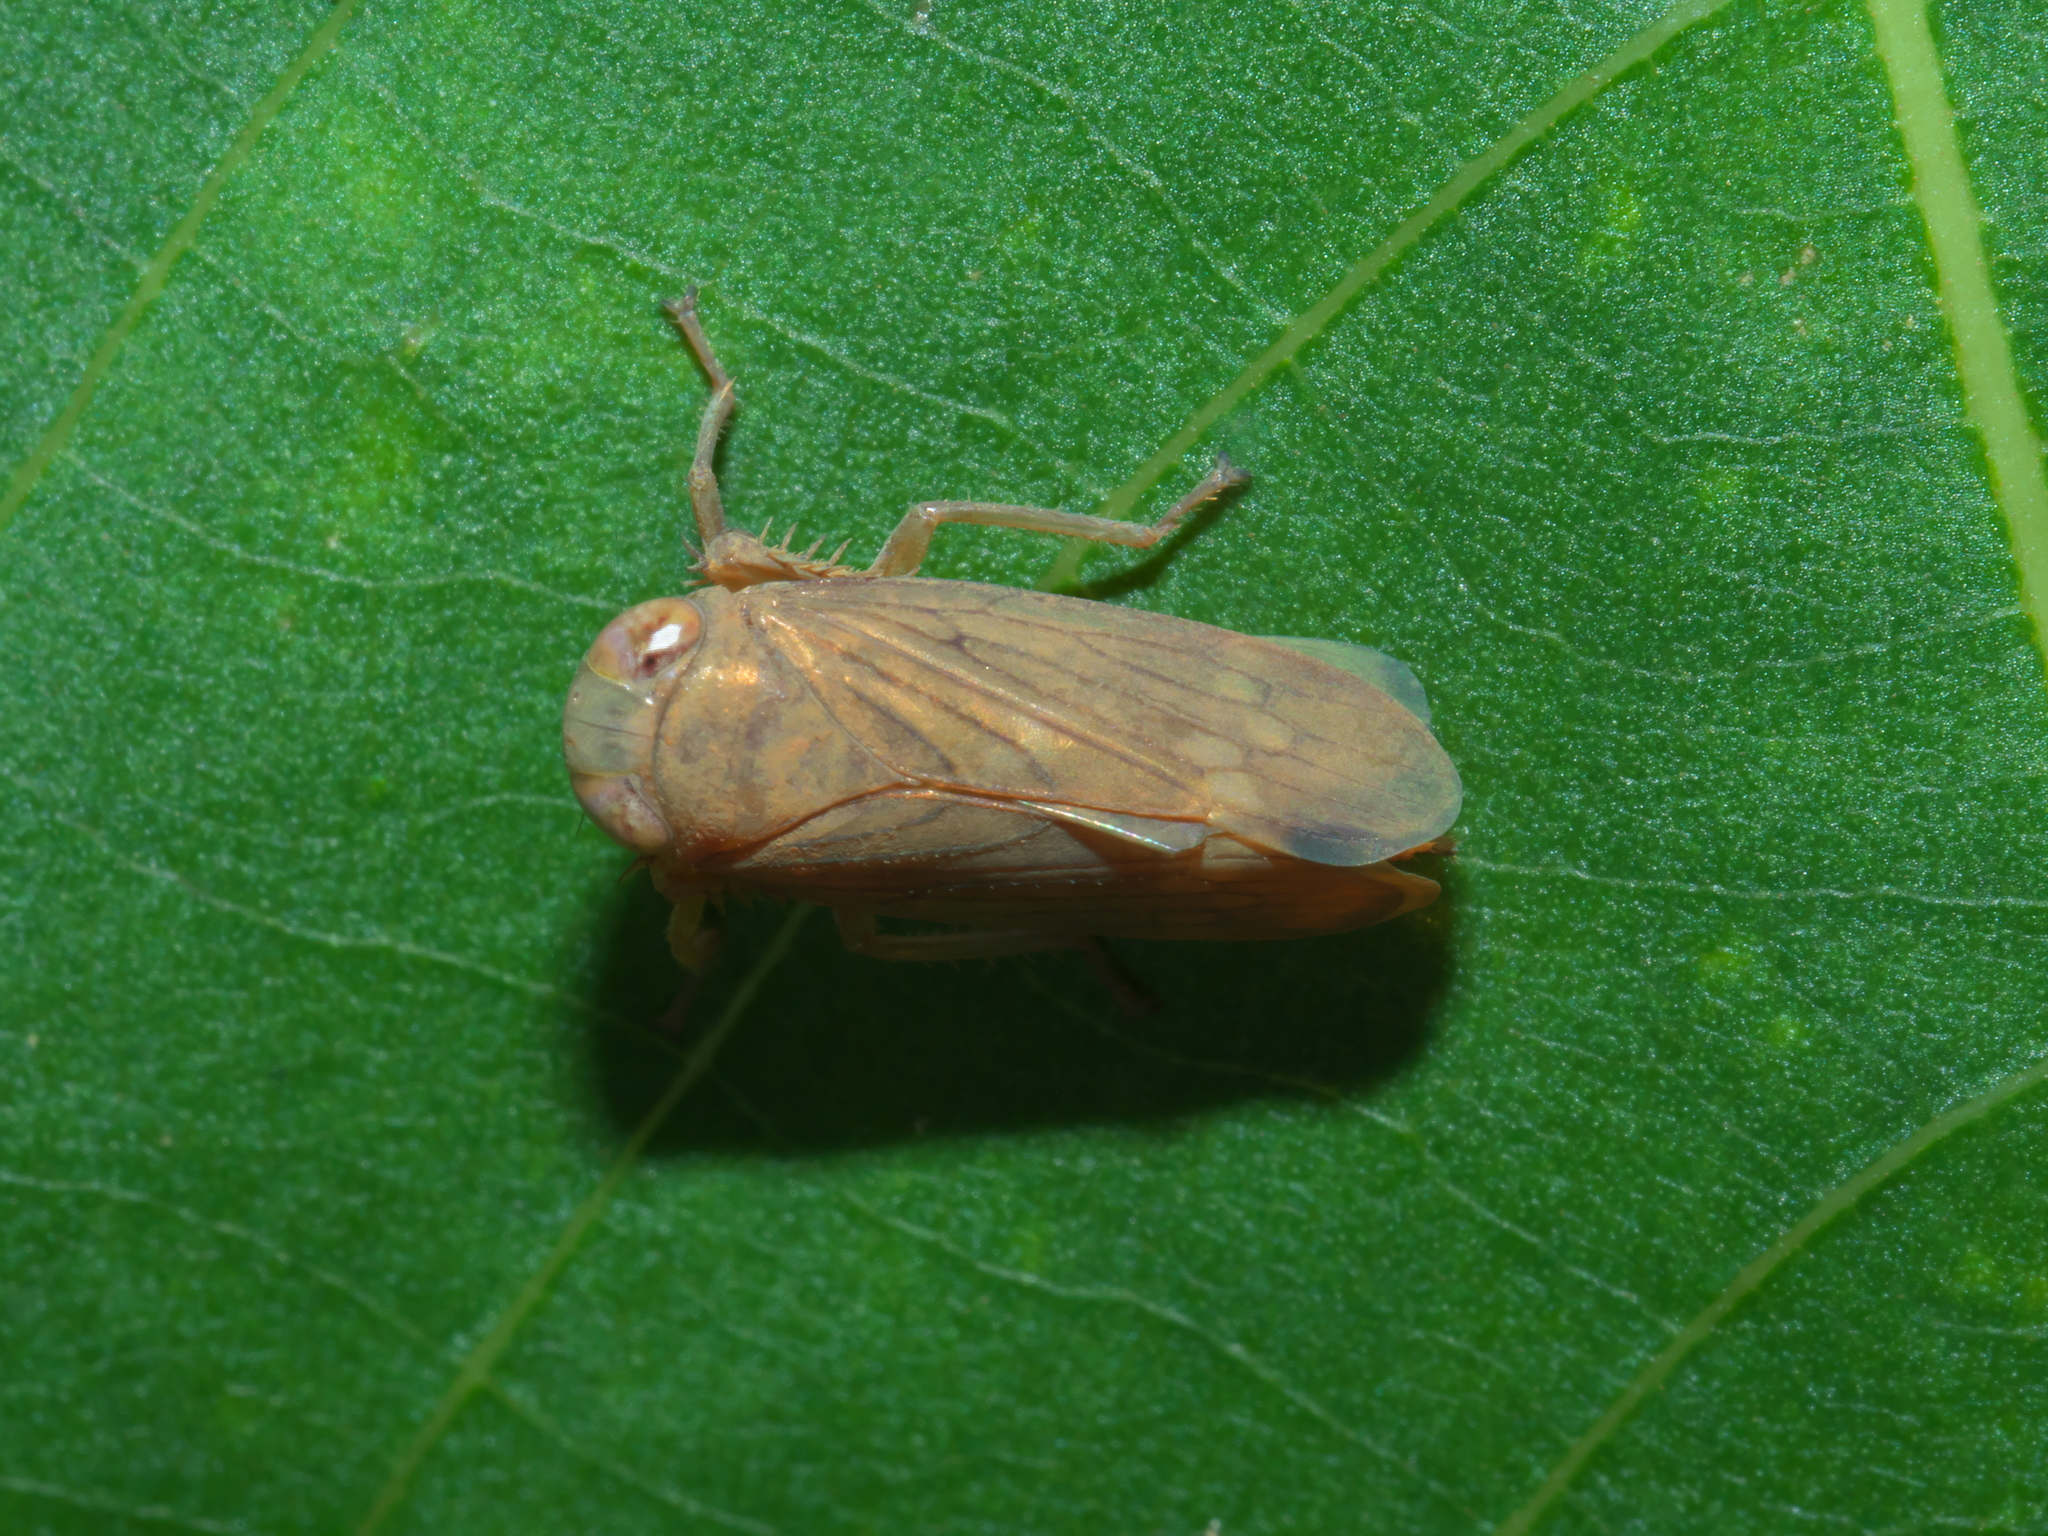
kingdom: Animalia
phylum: Arthropoda
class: Insecta
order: Hemiptera
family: Cicadellidae
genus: Jikradia
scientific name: Jikradia olitoria
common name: Coppery leafhopper
